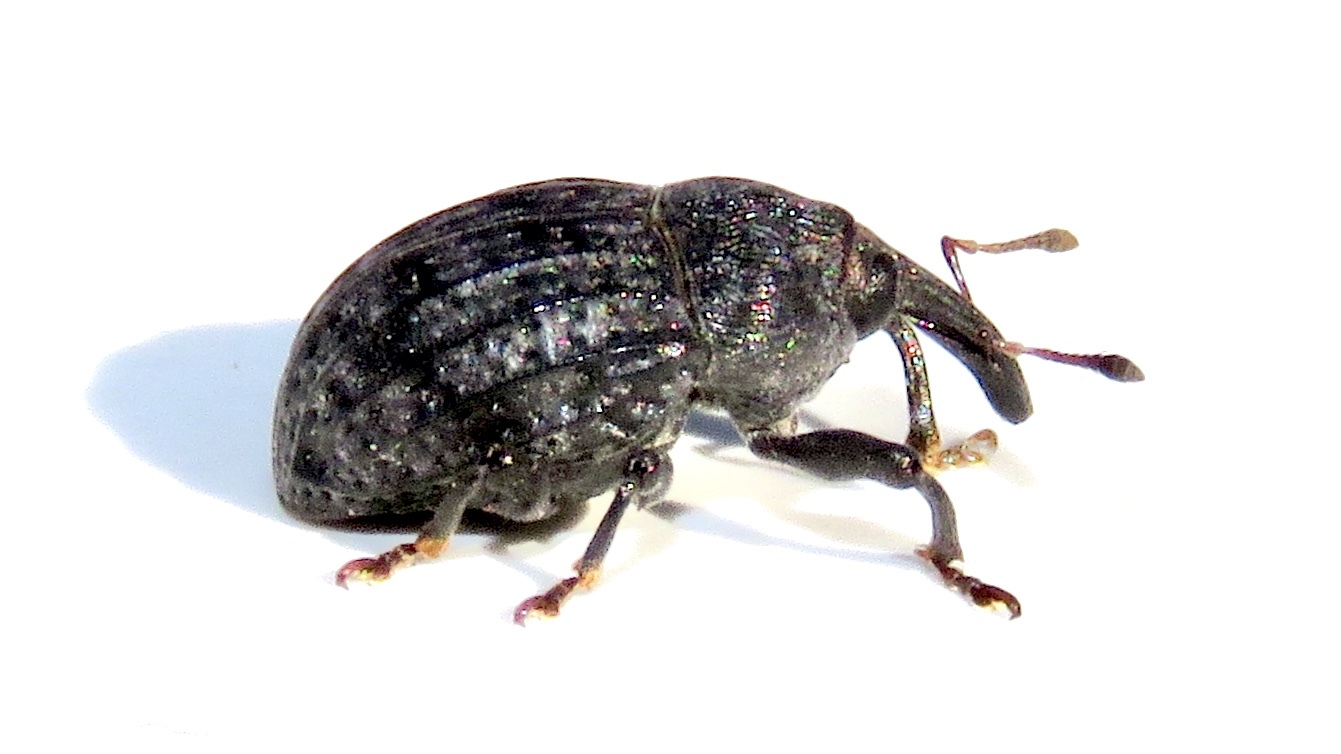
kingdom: Animalia
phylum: Arthropoda
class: Insecta
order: Coleoptera
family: Curculionidae
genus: Rhyssomatus
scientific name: Rhyssomatus lineaticollis
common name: Milkweed stem weevil
